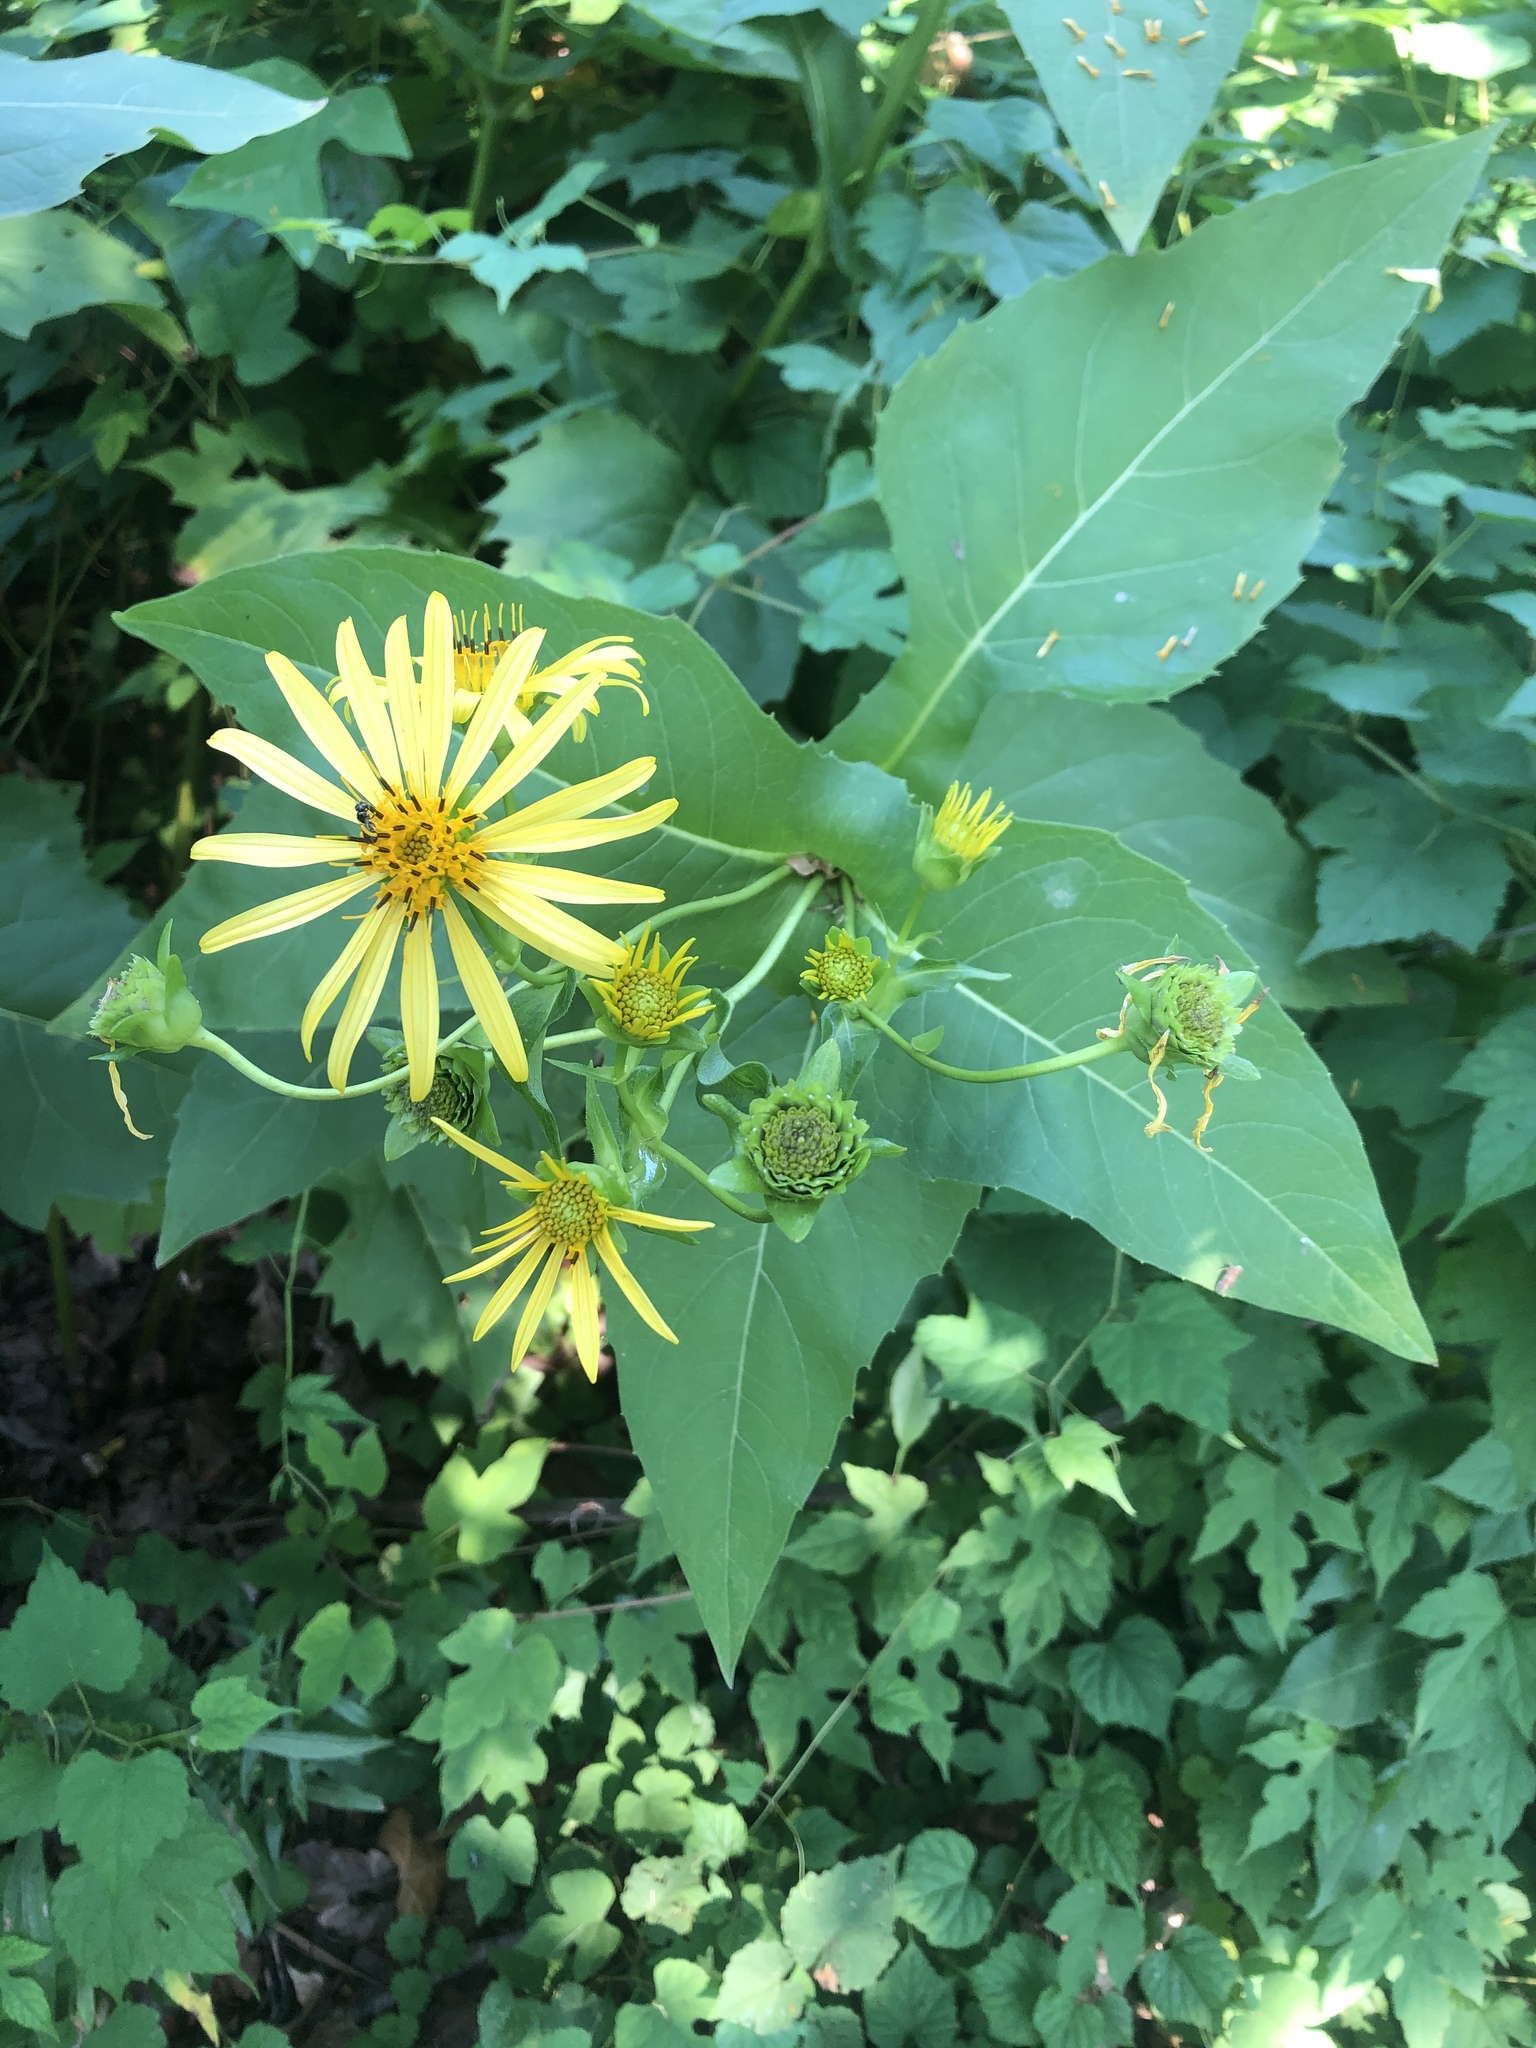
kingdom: Plantae
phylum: Tracheophyta
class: Magnoliopsida
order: Asterales
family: Asteraceae
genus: Silphium
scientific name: Silphium perfoliatum
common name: Cup-plant
